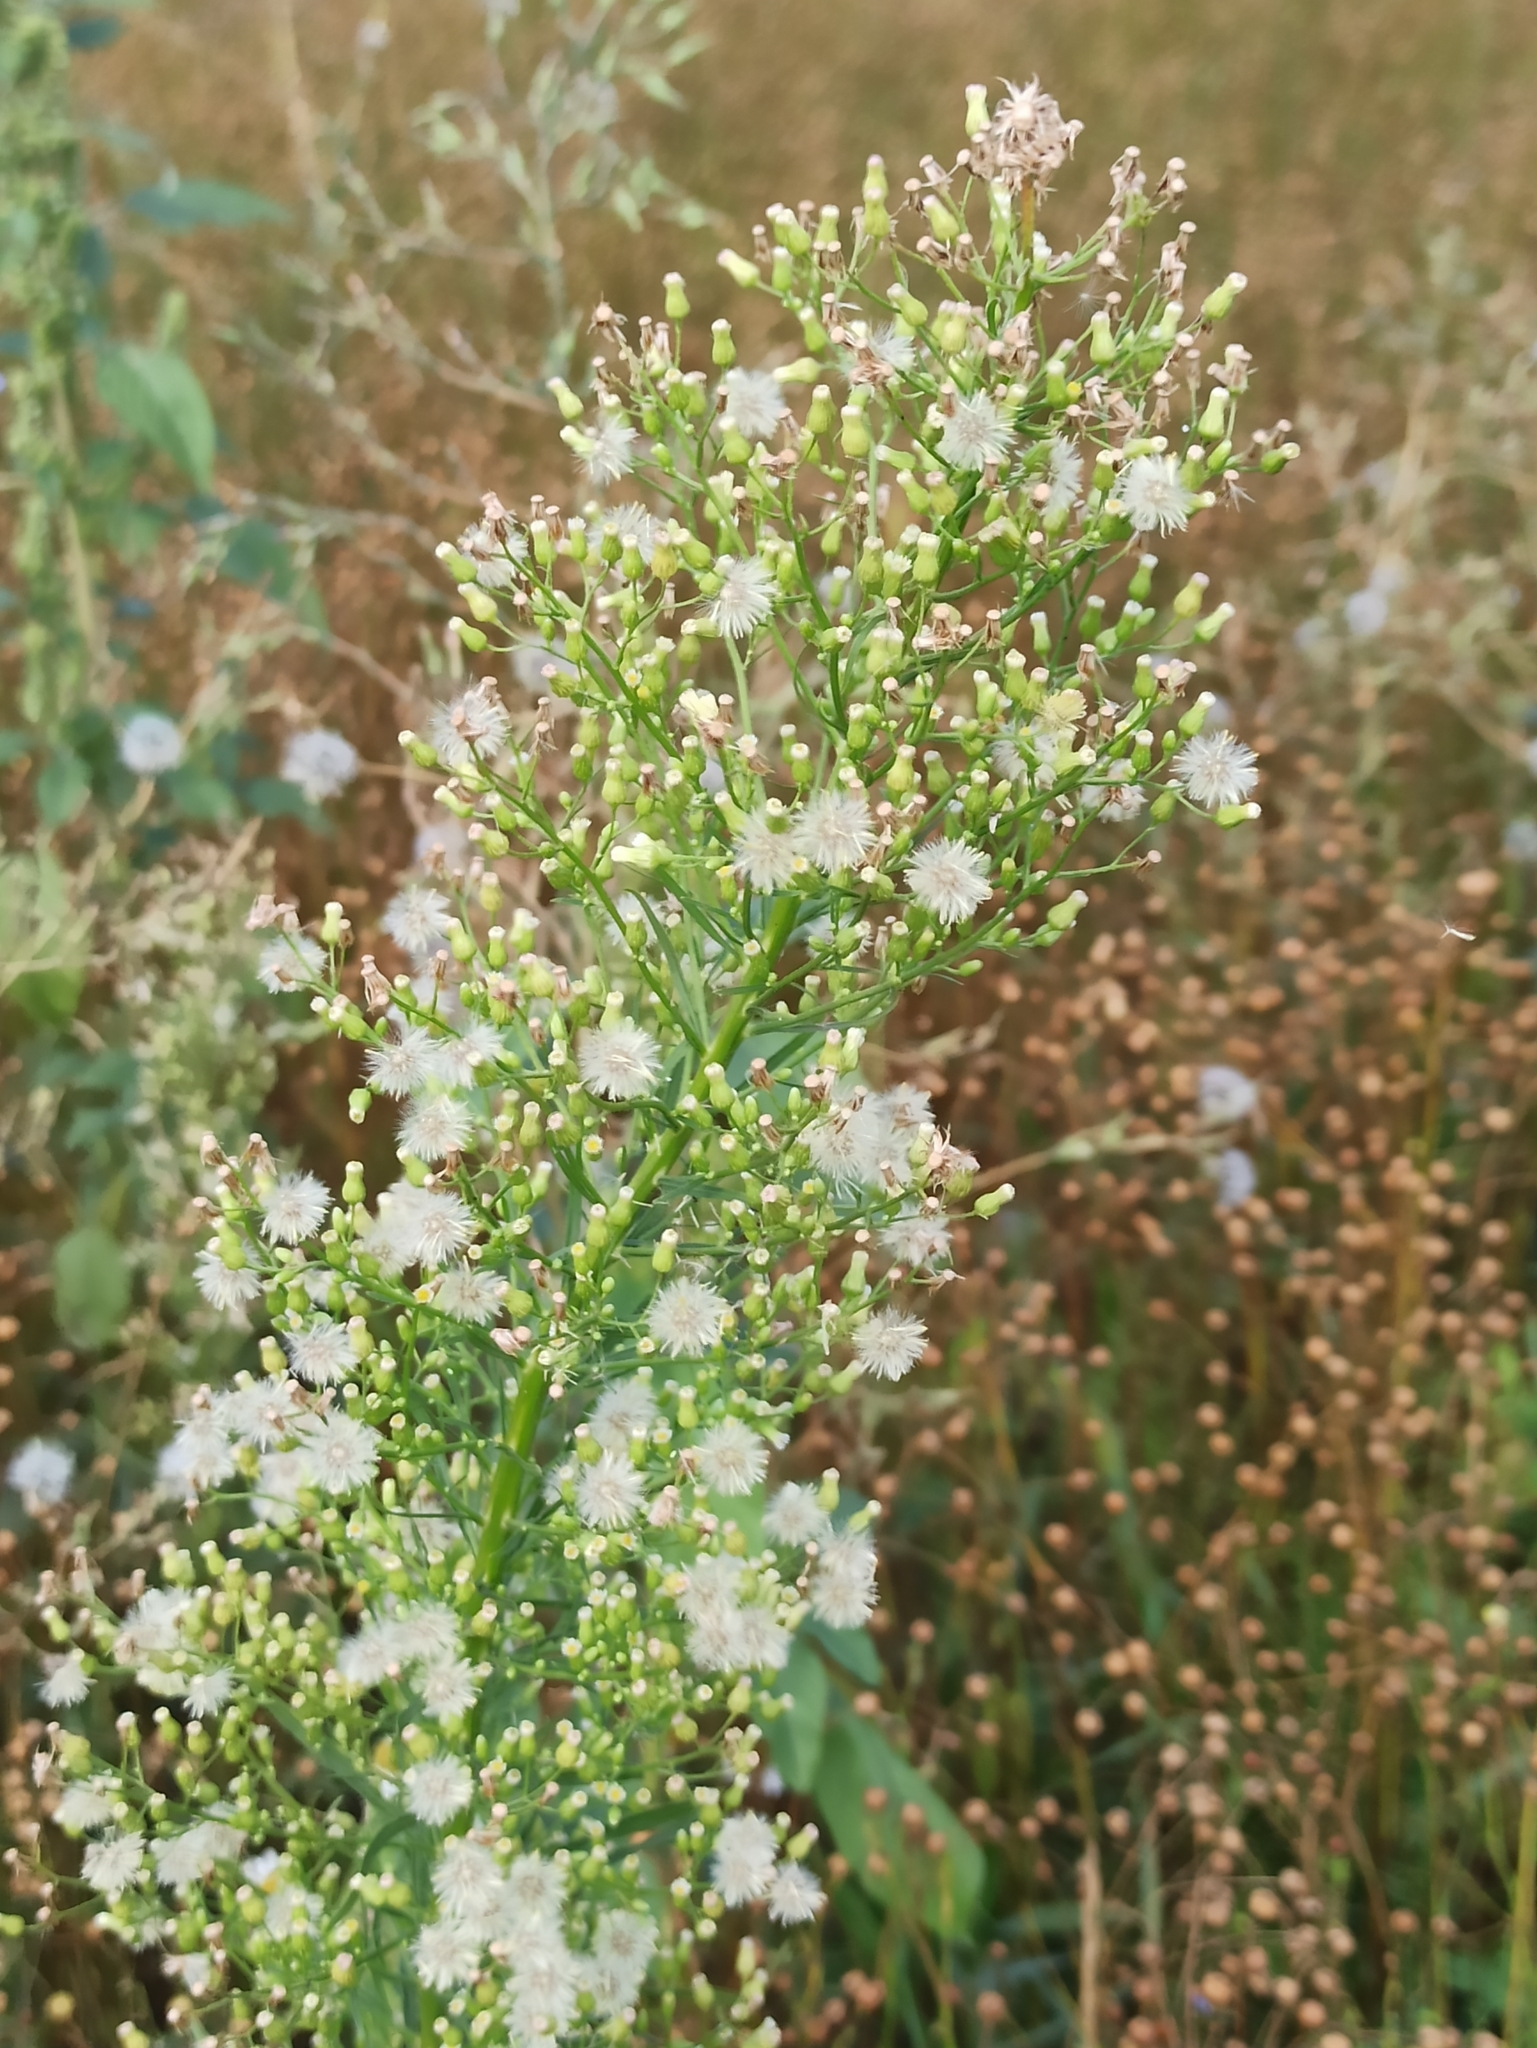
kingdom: Plantae
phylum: Tracheophyta
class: Magnoliopsida
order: Asterales
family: Asteraceae
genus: Erigeron
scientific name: Erigeron canadensis
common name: Canadian fleabane
